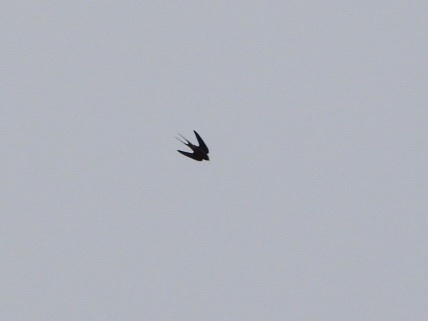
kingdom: Animalia
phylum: Chordata
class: Aves
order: Passeriformes
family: Hirundinidae
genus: Hirundo
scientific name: Hirundo rustica
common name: Barn swallow
